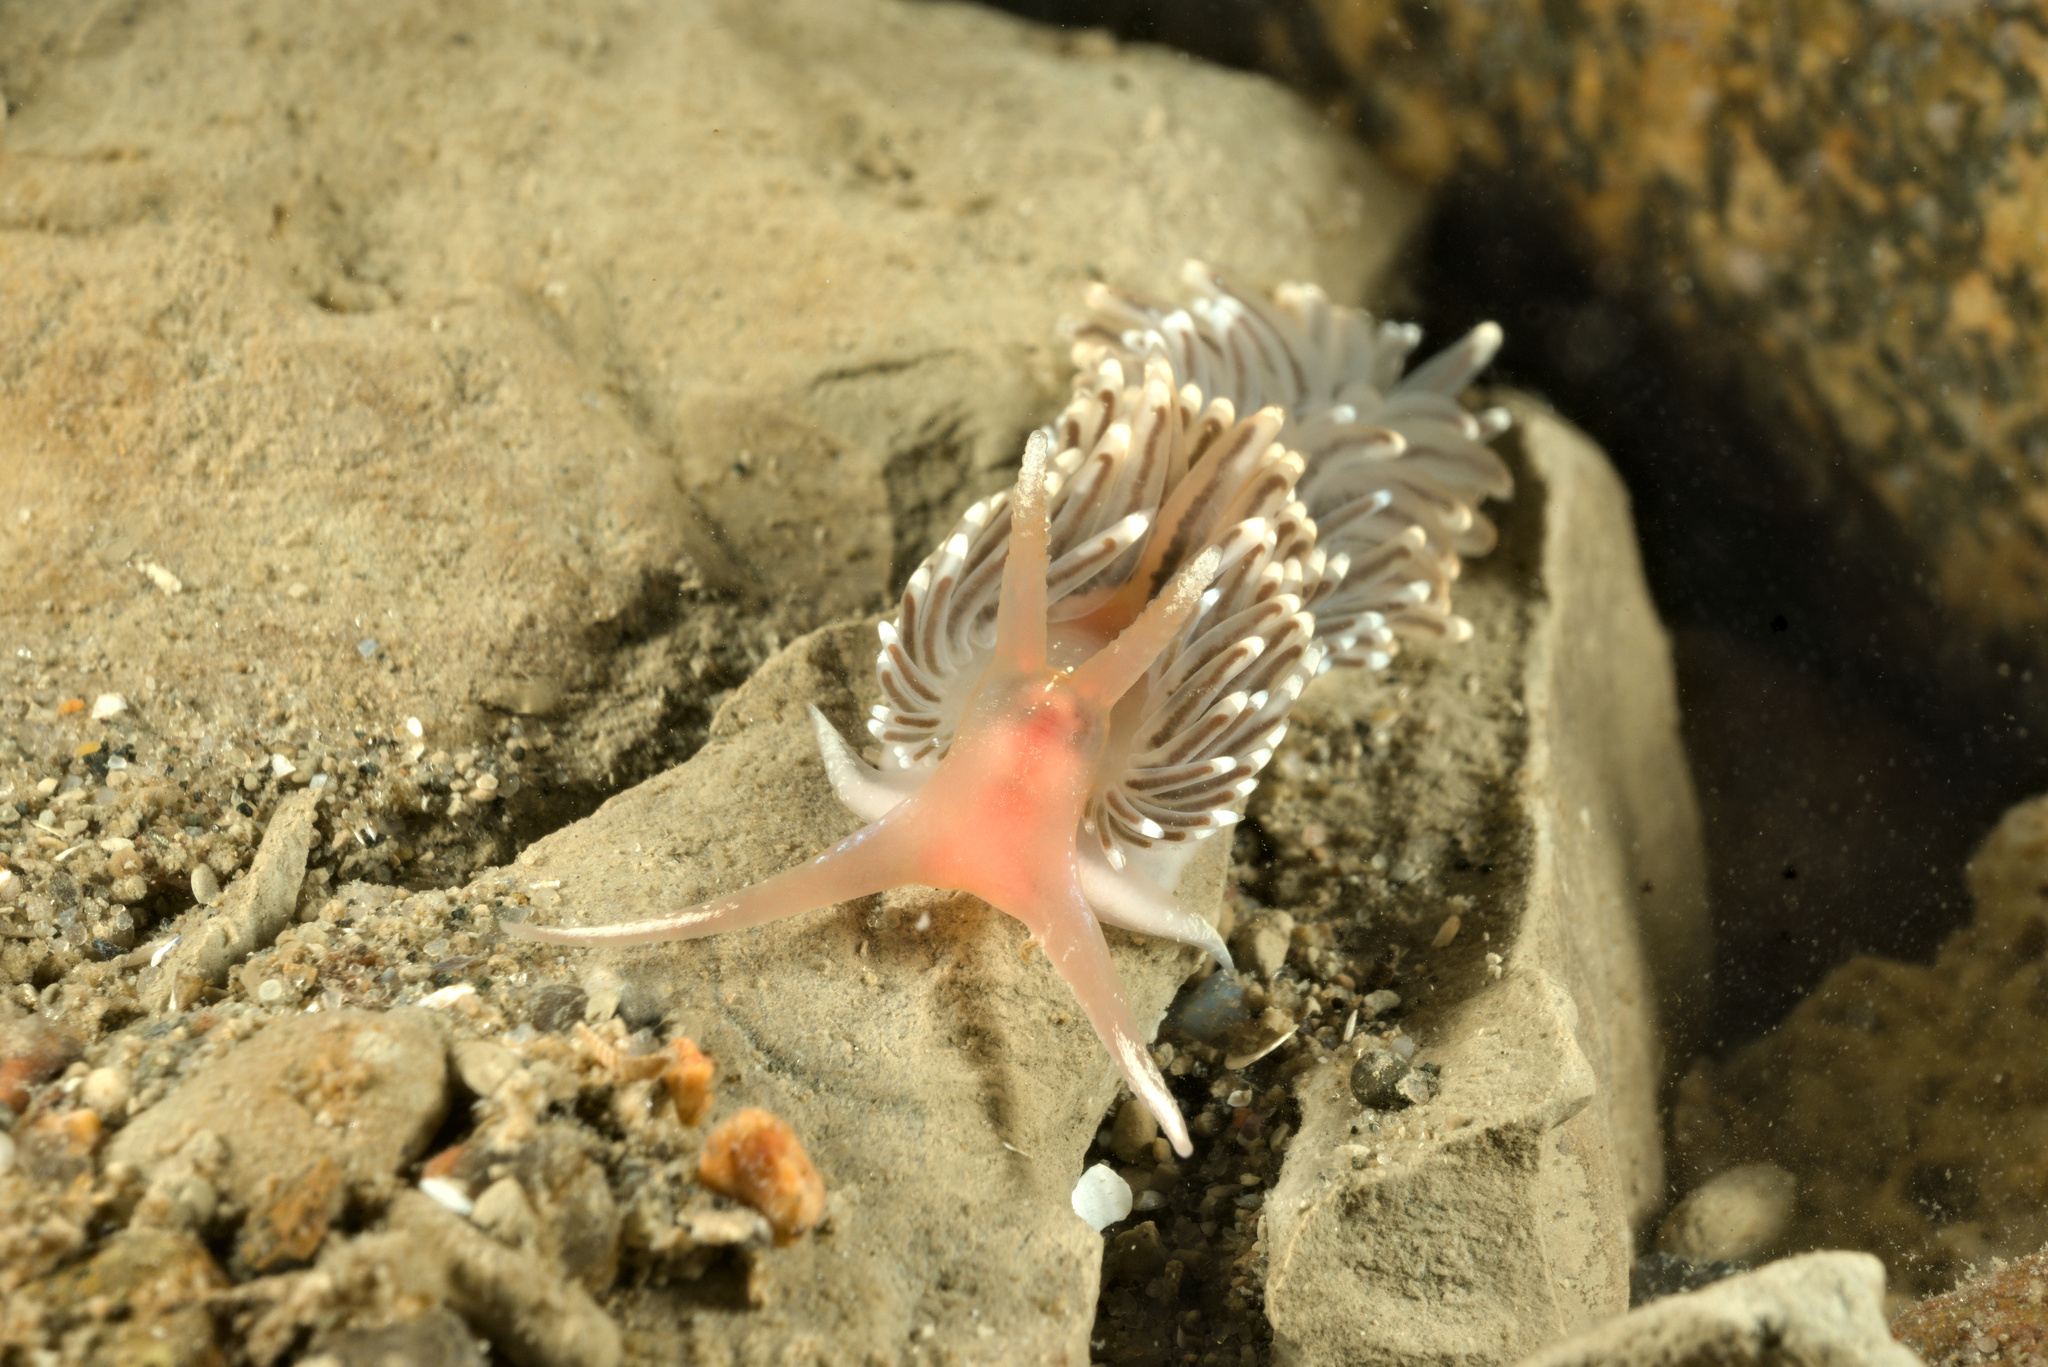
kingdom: Animalia
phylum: Mollusca
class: Gastropoda
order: Nudibranchia
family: Facelinidae
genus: Facelina
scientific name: Facelina bostoniensis
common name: Boston facelina
